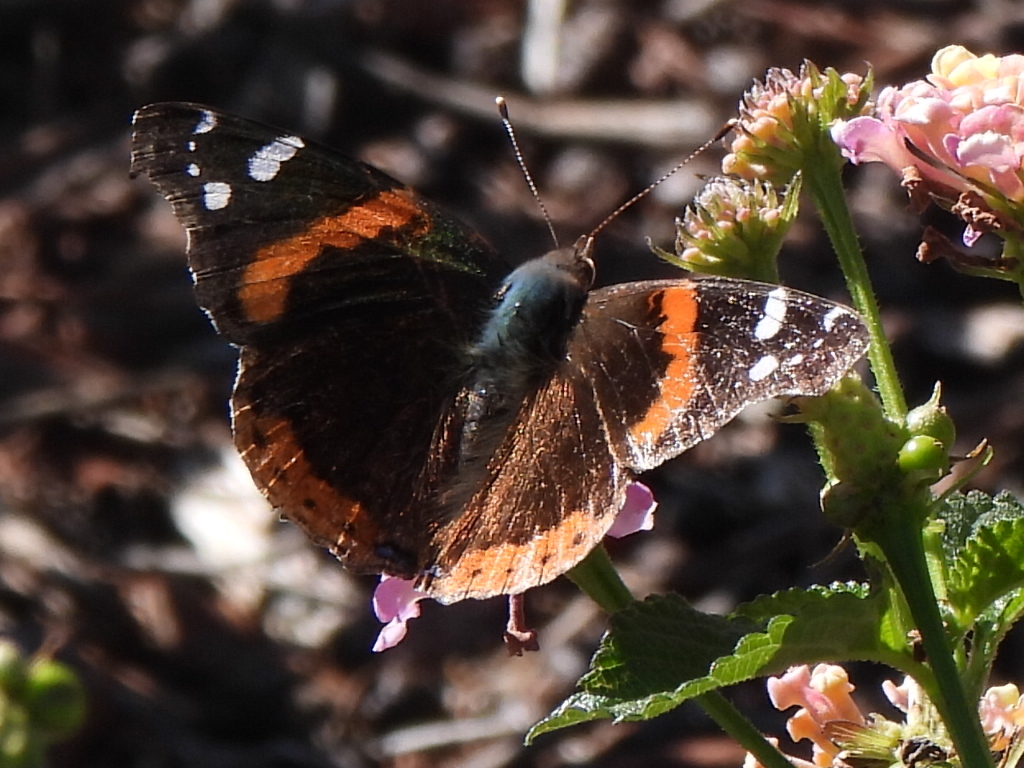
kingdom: Animalia
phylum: Arthropoda
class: Insecta
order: Lepidoptera
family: Nymphalidae
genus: Vanessa
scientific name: Vanessa atalanta
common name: Red admiral
